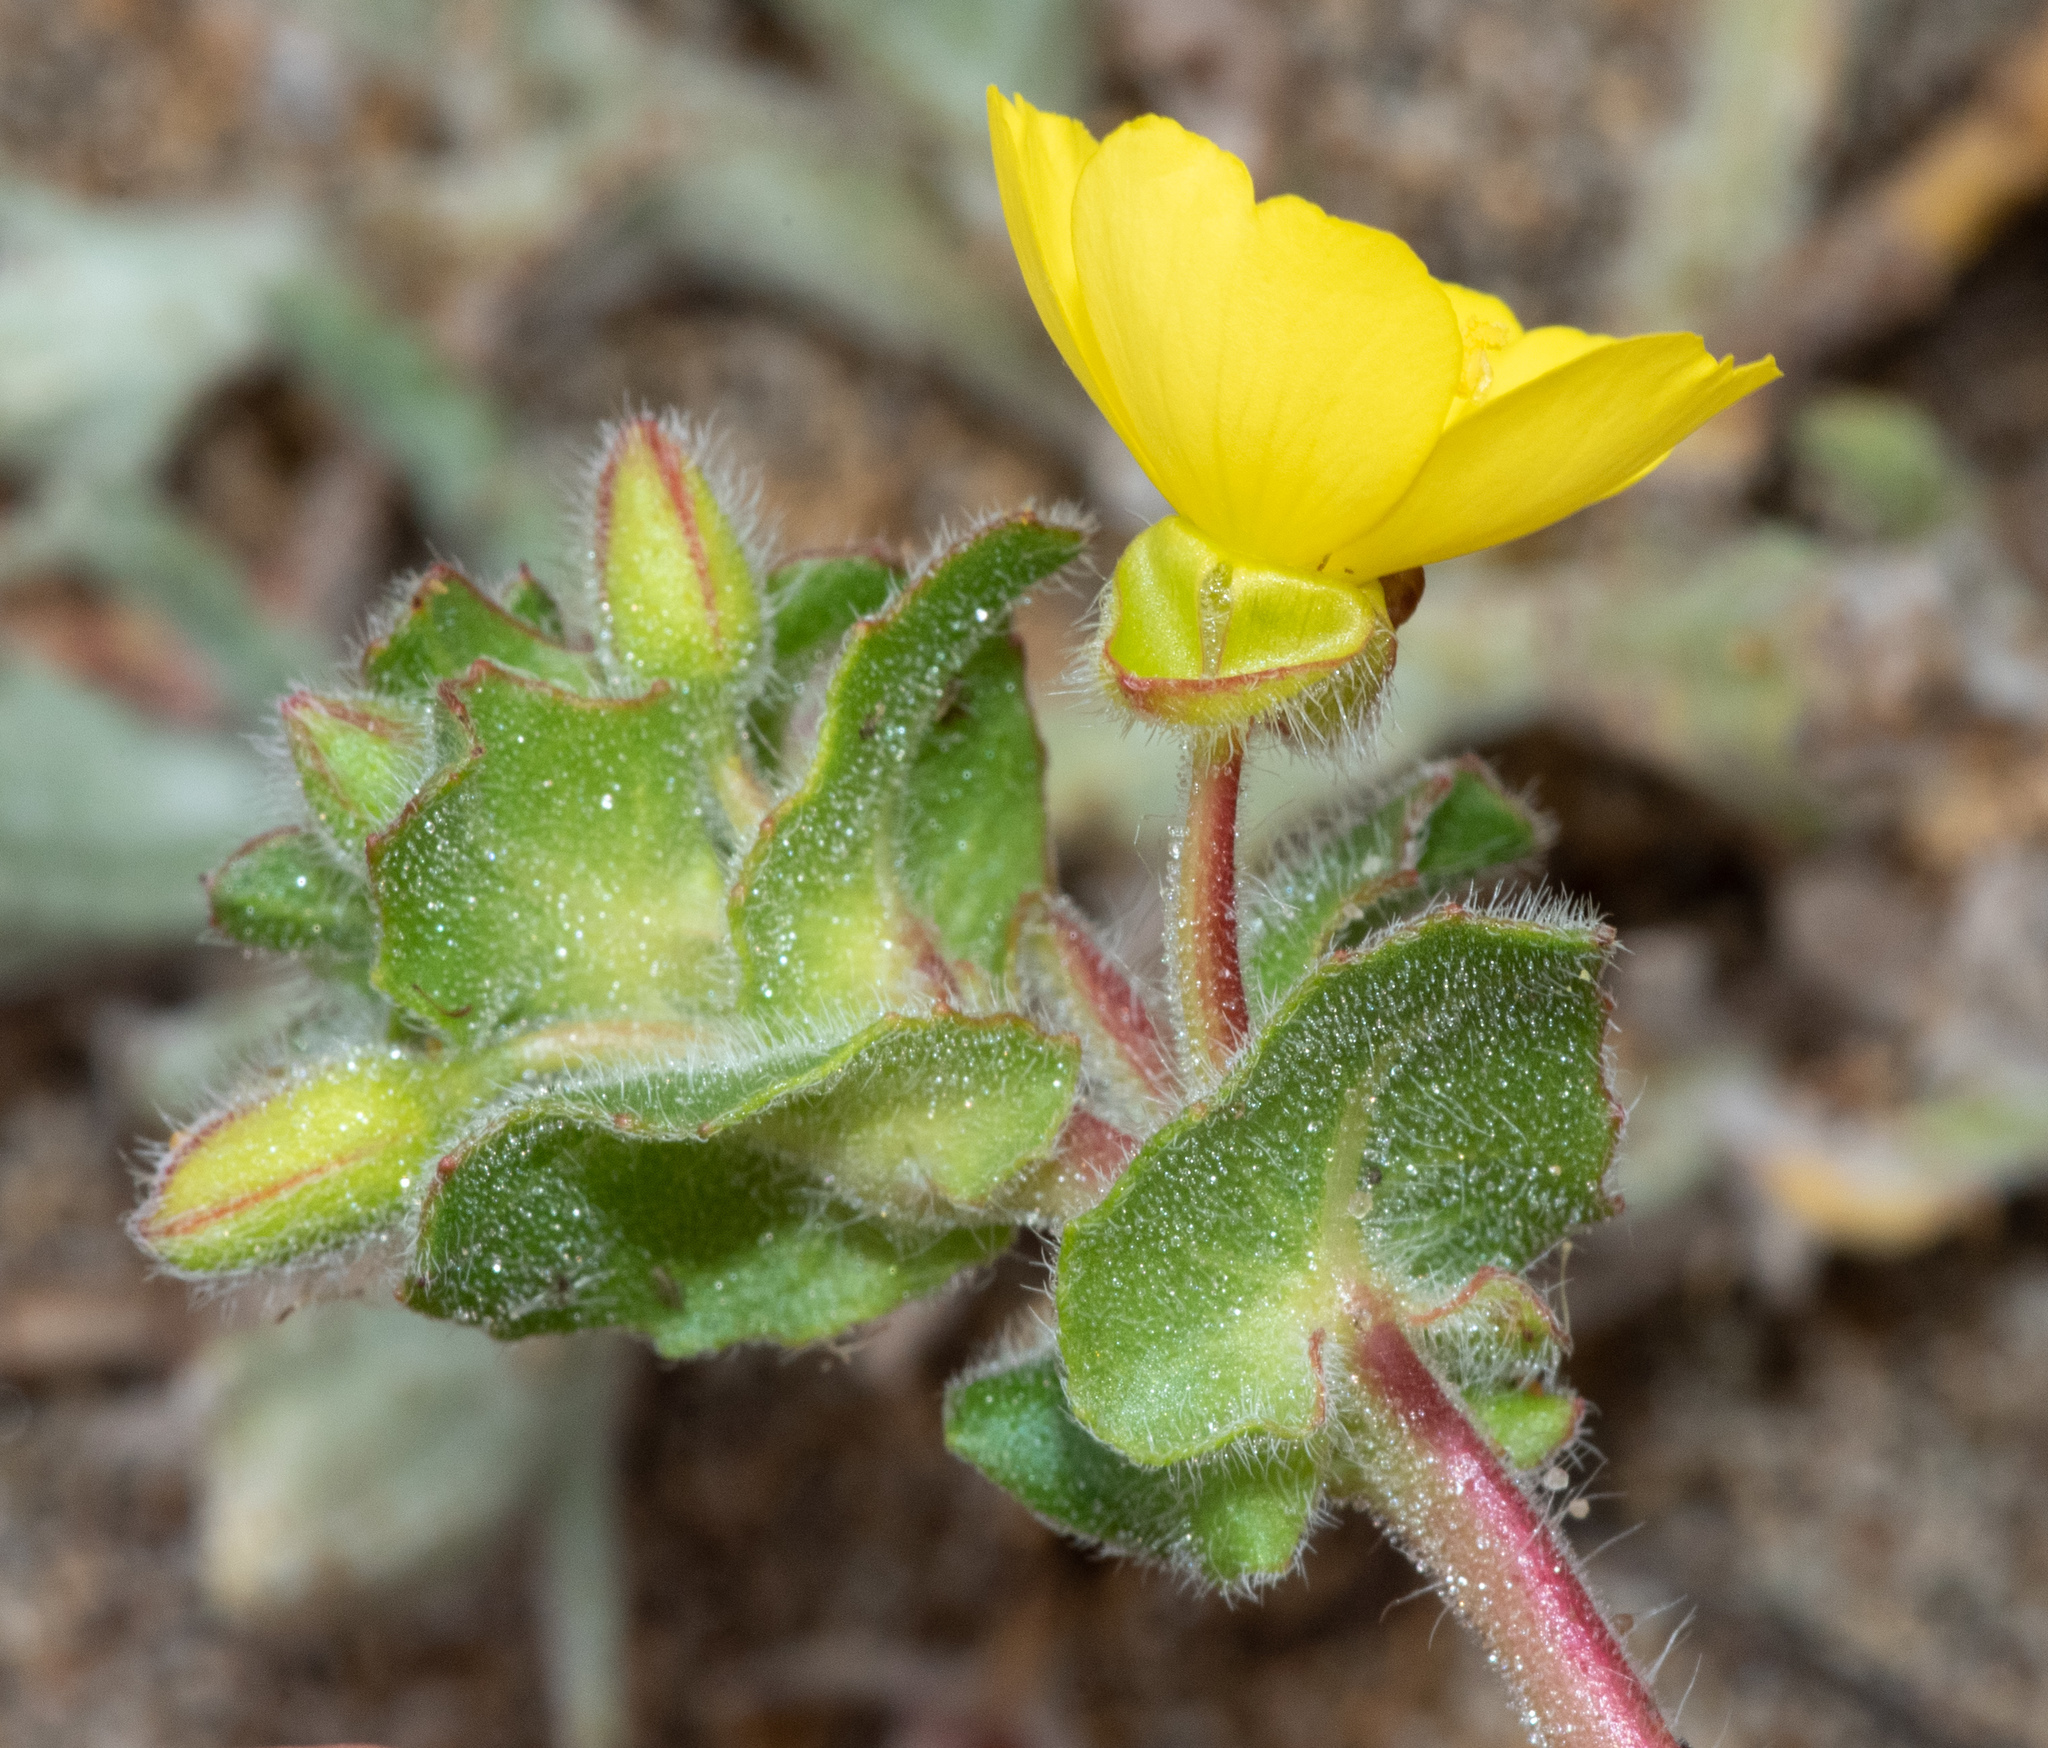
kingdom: Plantae
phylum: Tracheophyta
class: Magnoliopsida
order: Myrtales
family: Onagraceae
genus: Camissoniopsis
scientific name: Camissoniopsis cheiranthifolia
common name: Beach suncup
